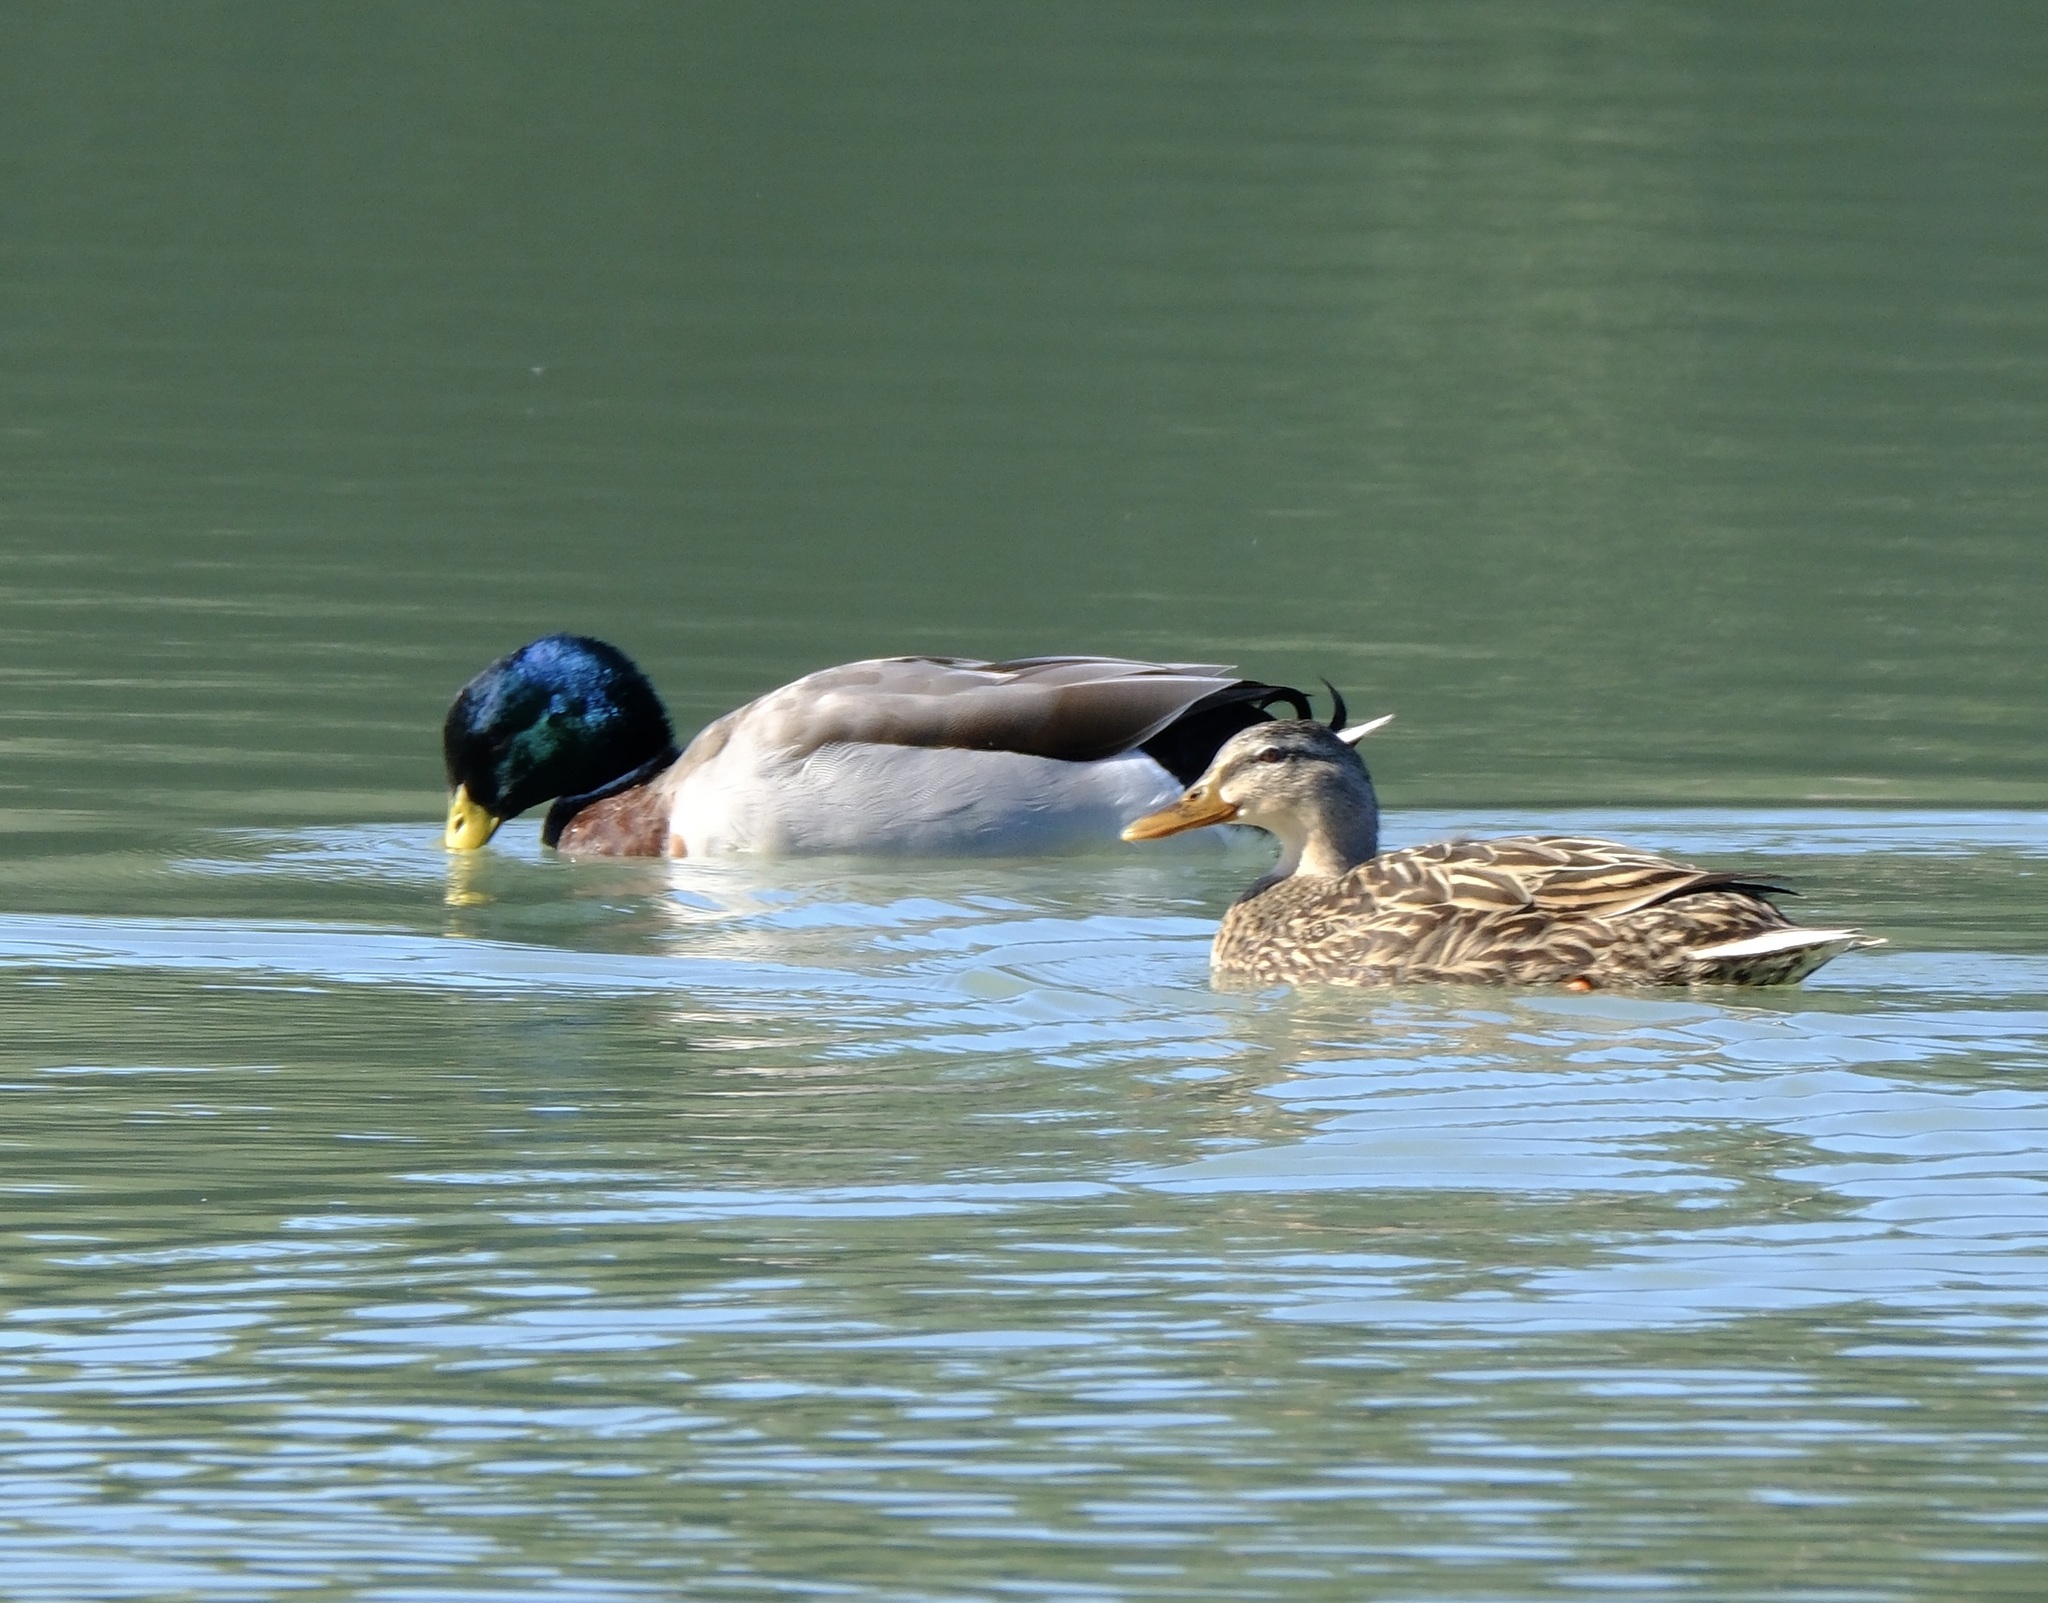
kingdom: Animalia
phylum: Chordata
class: Aves
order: Anseriformes
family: Anatidae
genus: Anas
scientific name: Anas platyrhynchos
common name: Mallard
